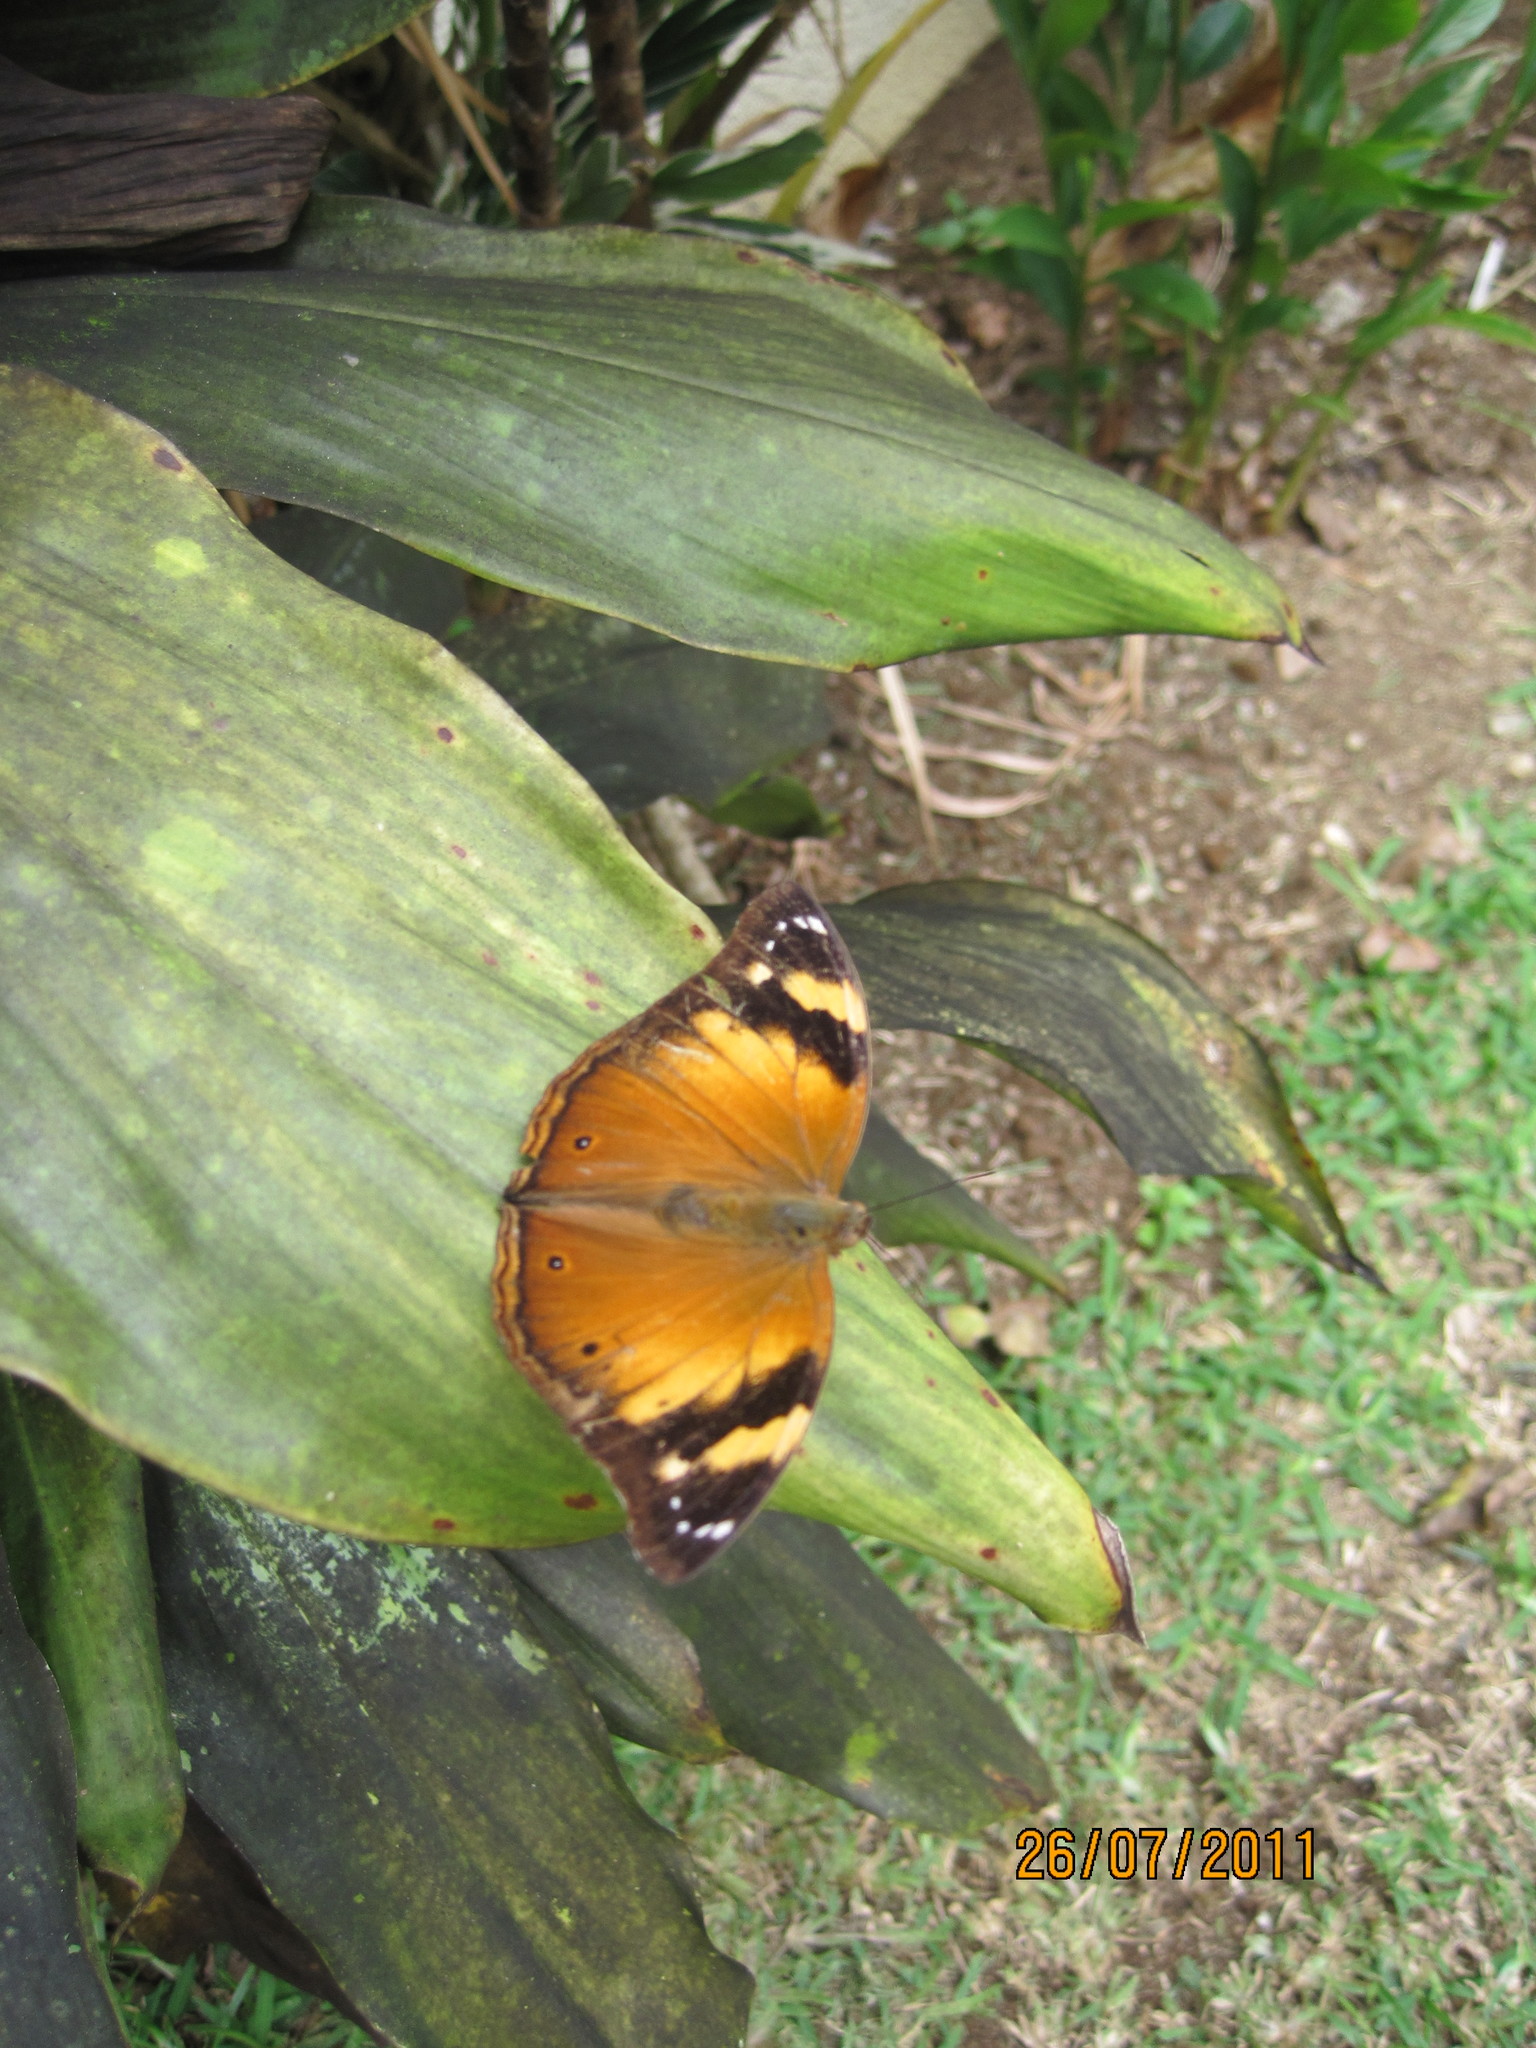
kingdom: Animalia
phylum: Arthropoda
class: Insecta
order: Lepidoptera
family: Nymphalidae
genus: Doleschallia
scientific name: Doleschallia browni
